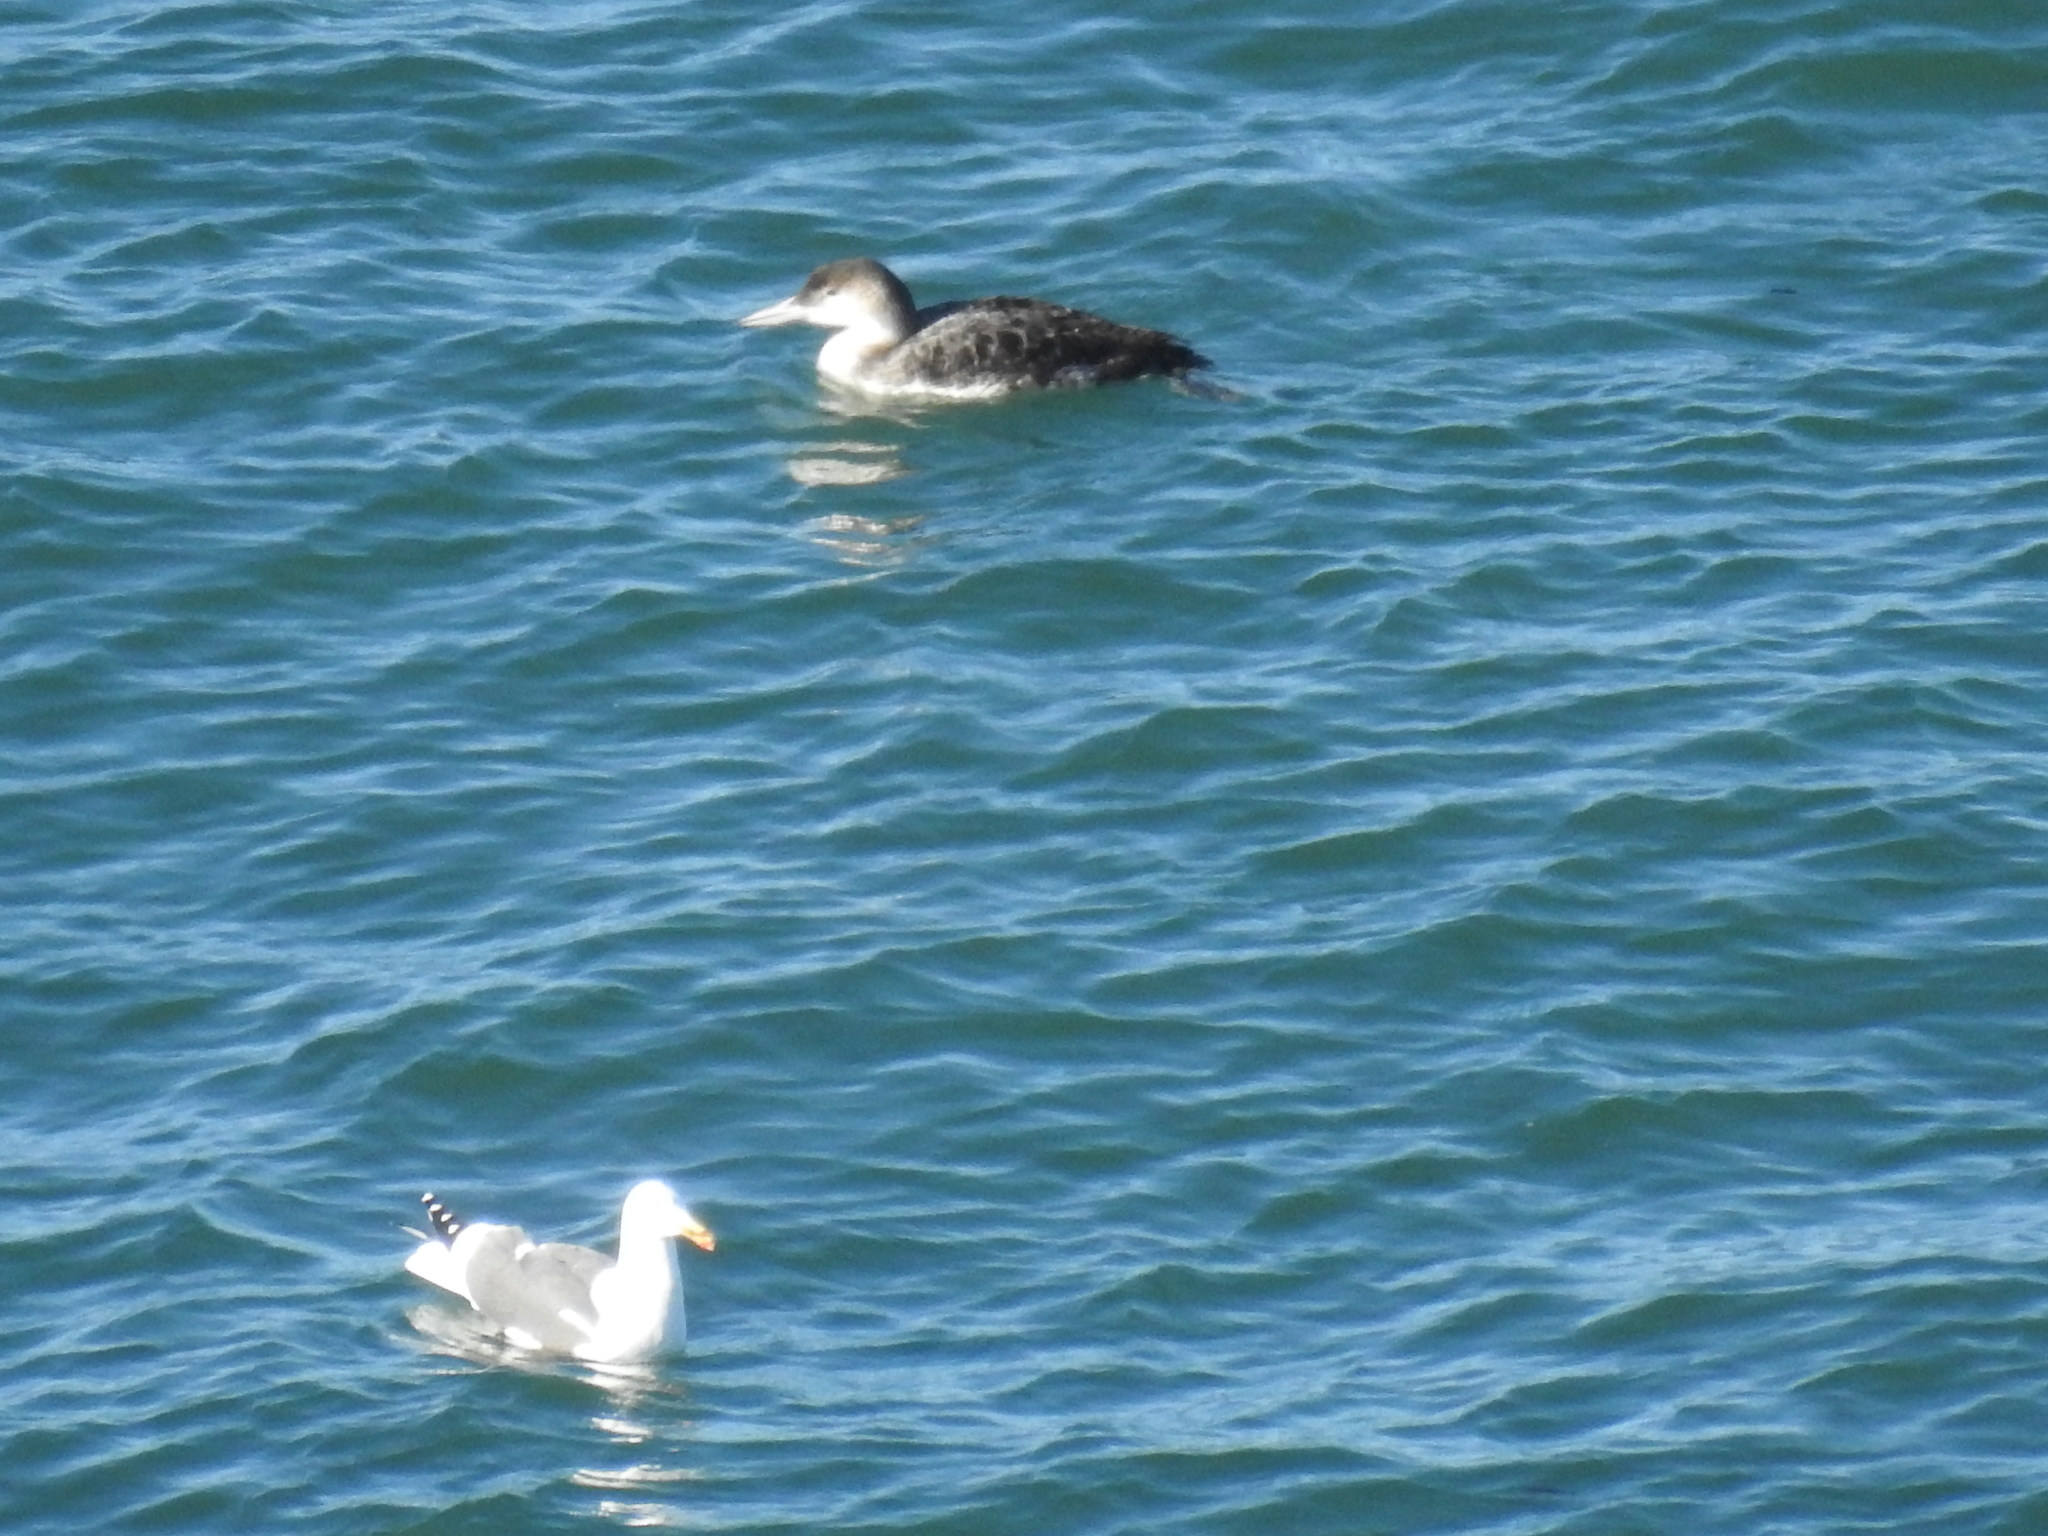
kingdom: Animalia
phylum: Chordata
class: Aves
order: Gaviiformes
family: Gaviidae
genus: Gavia
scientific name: Gavia immer
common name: Common loon
